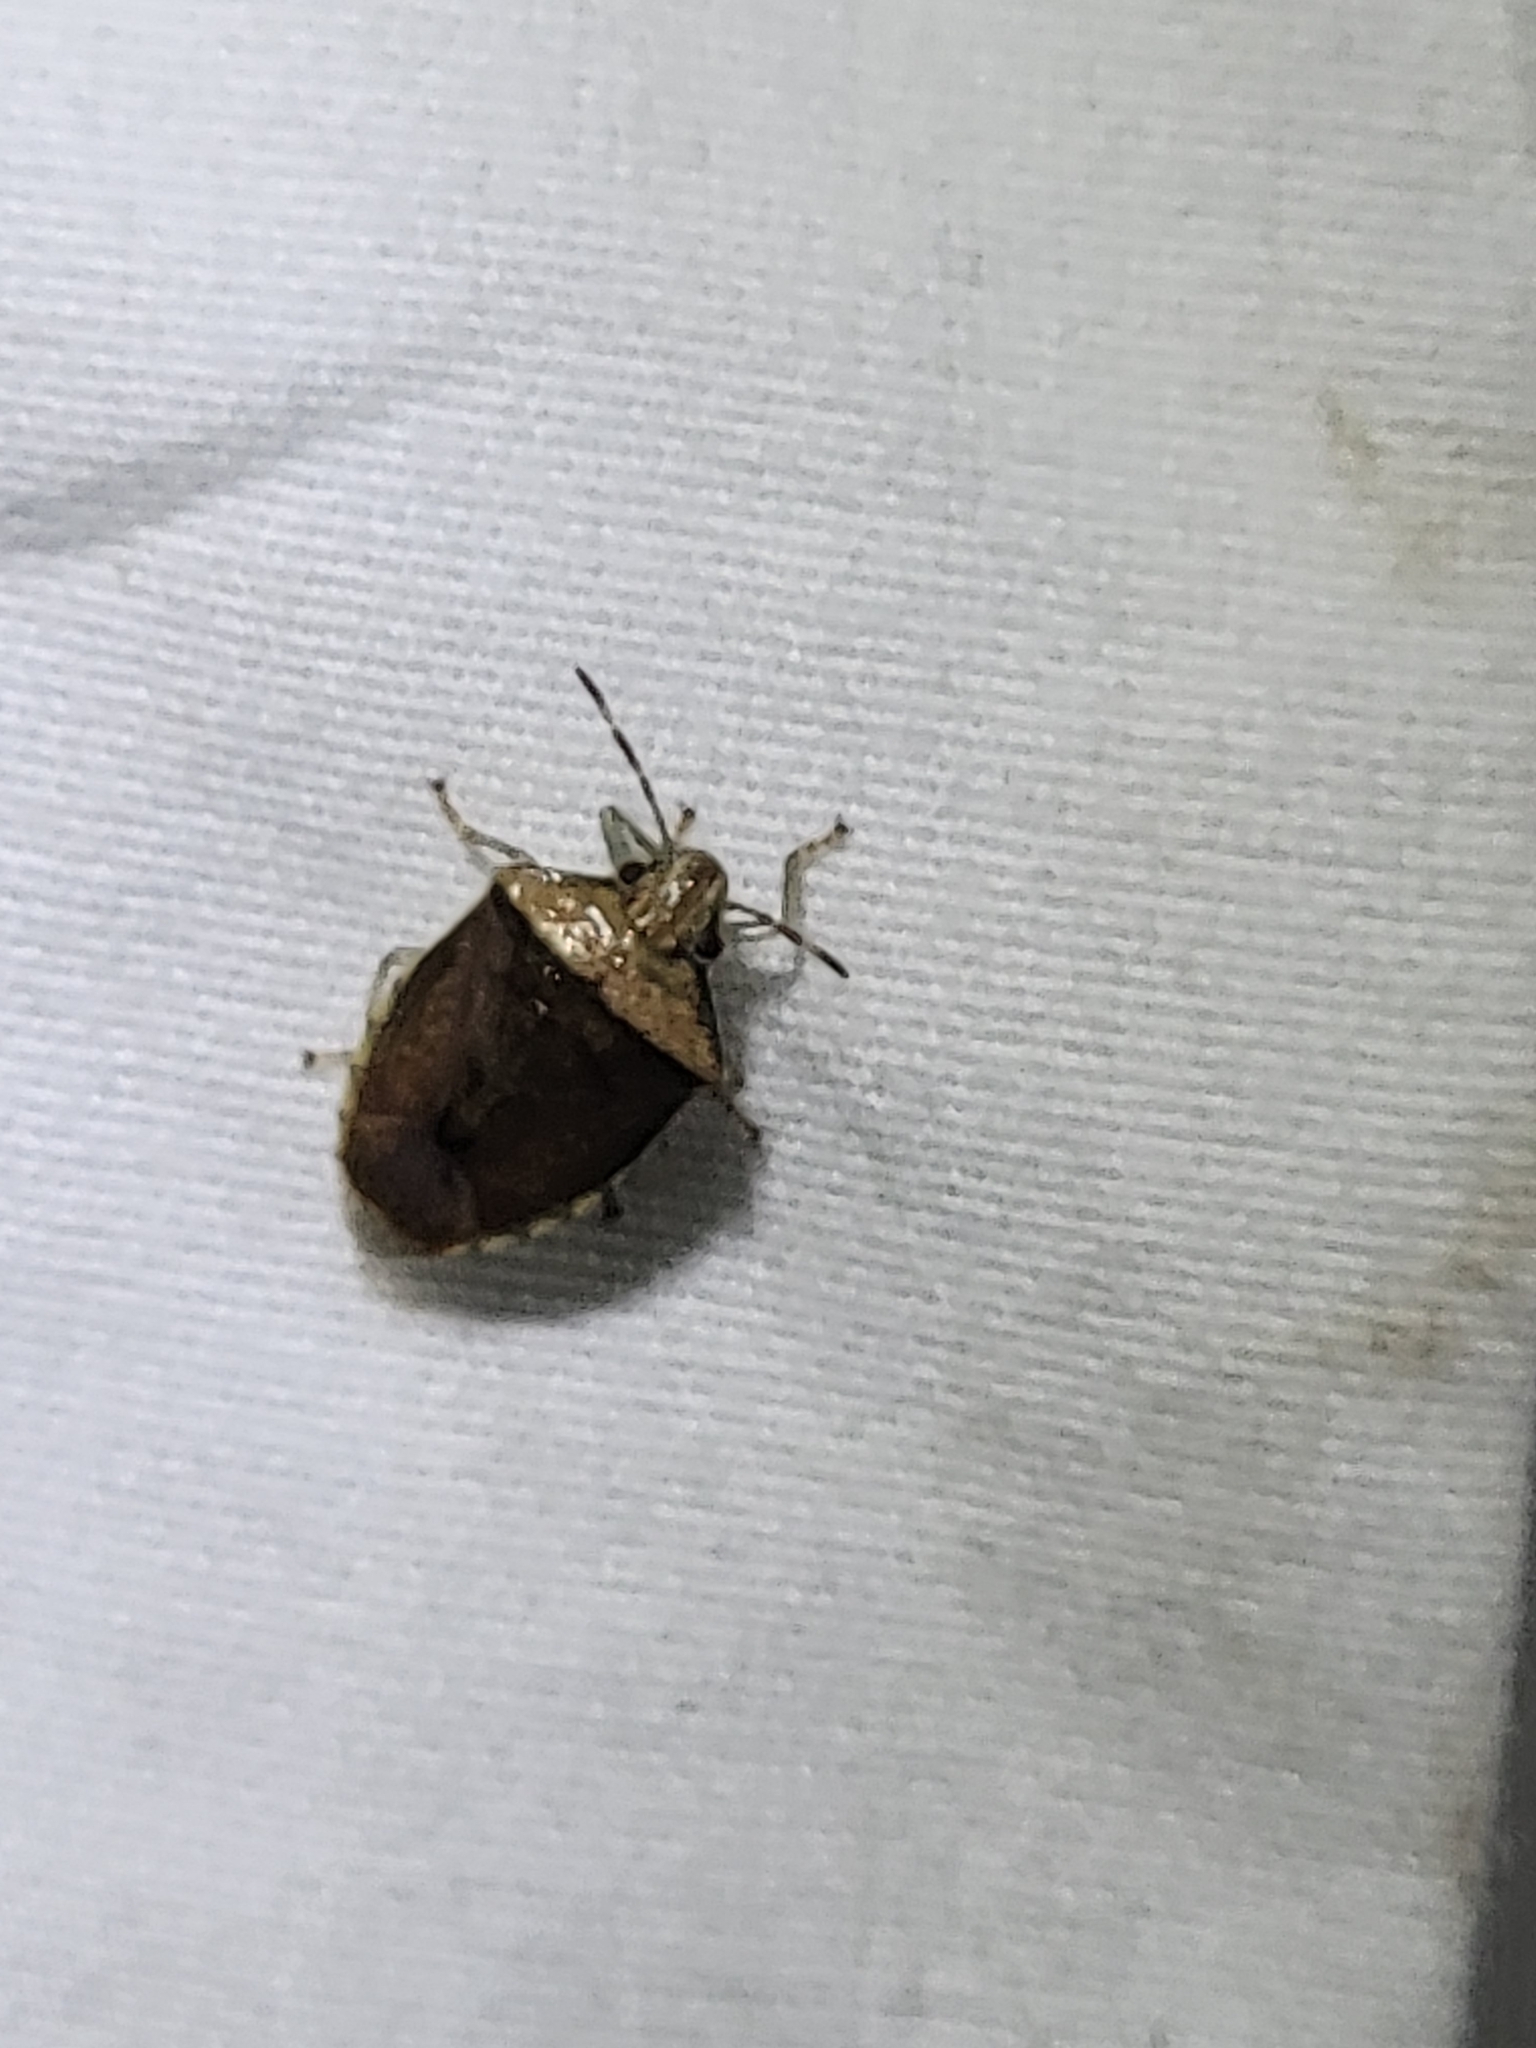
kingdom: Animalia
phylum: Arthropoda
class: Insecta
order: Hemiptera
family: Pentatomidae
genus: Banasa
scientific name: Banasa calva
